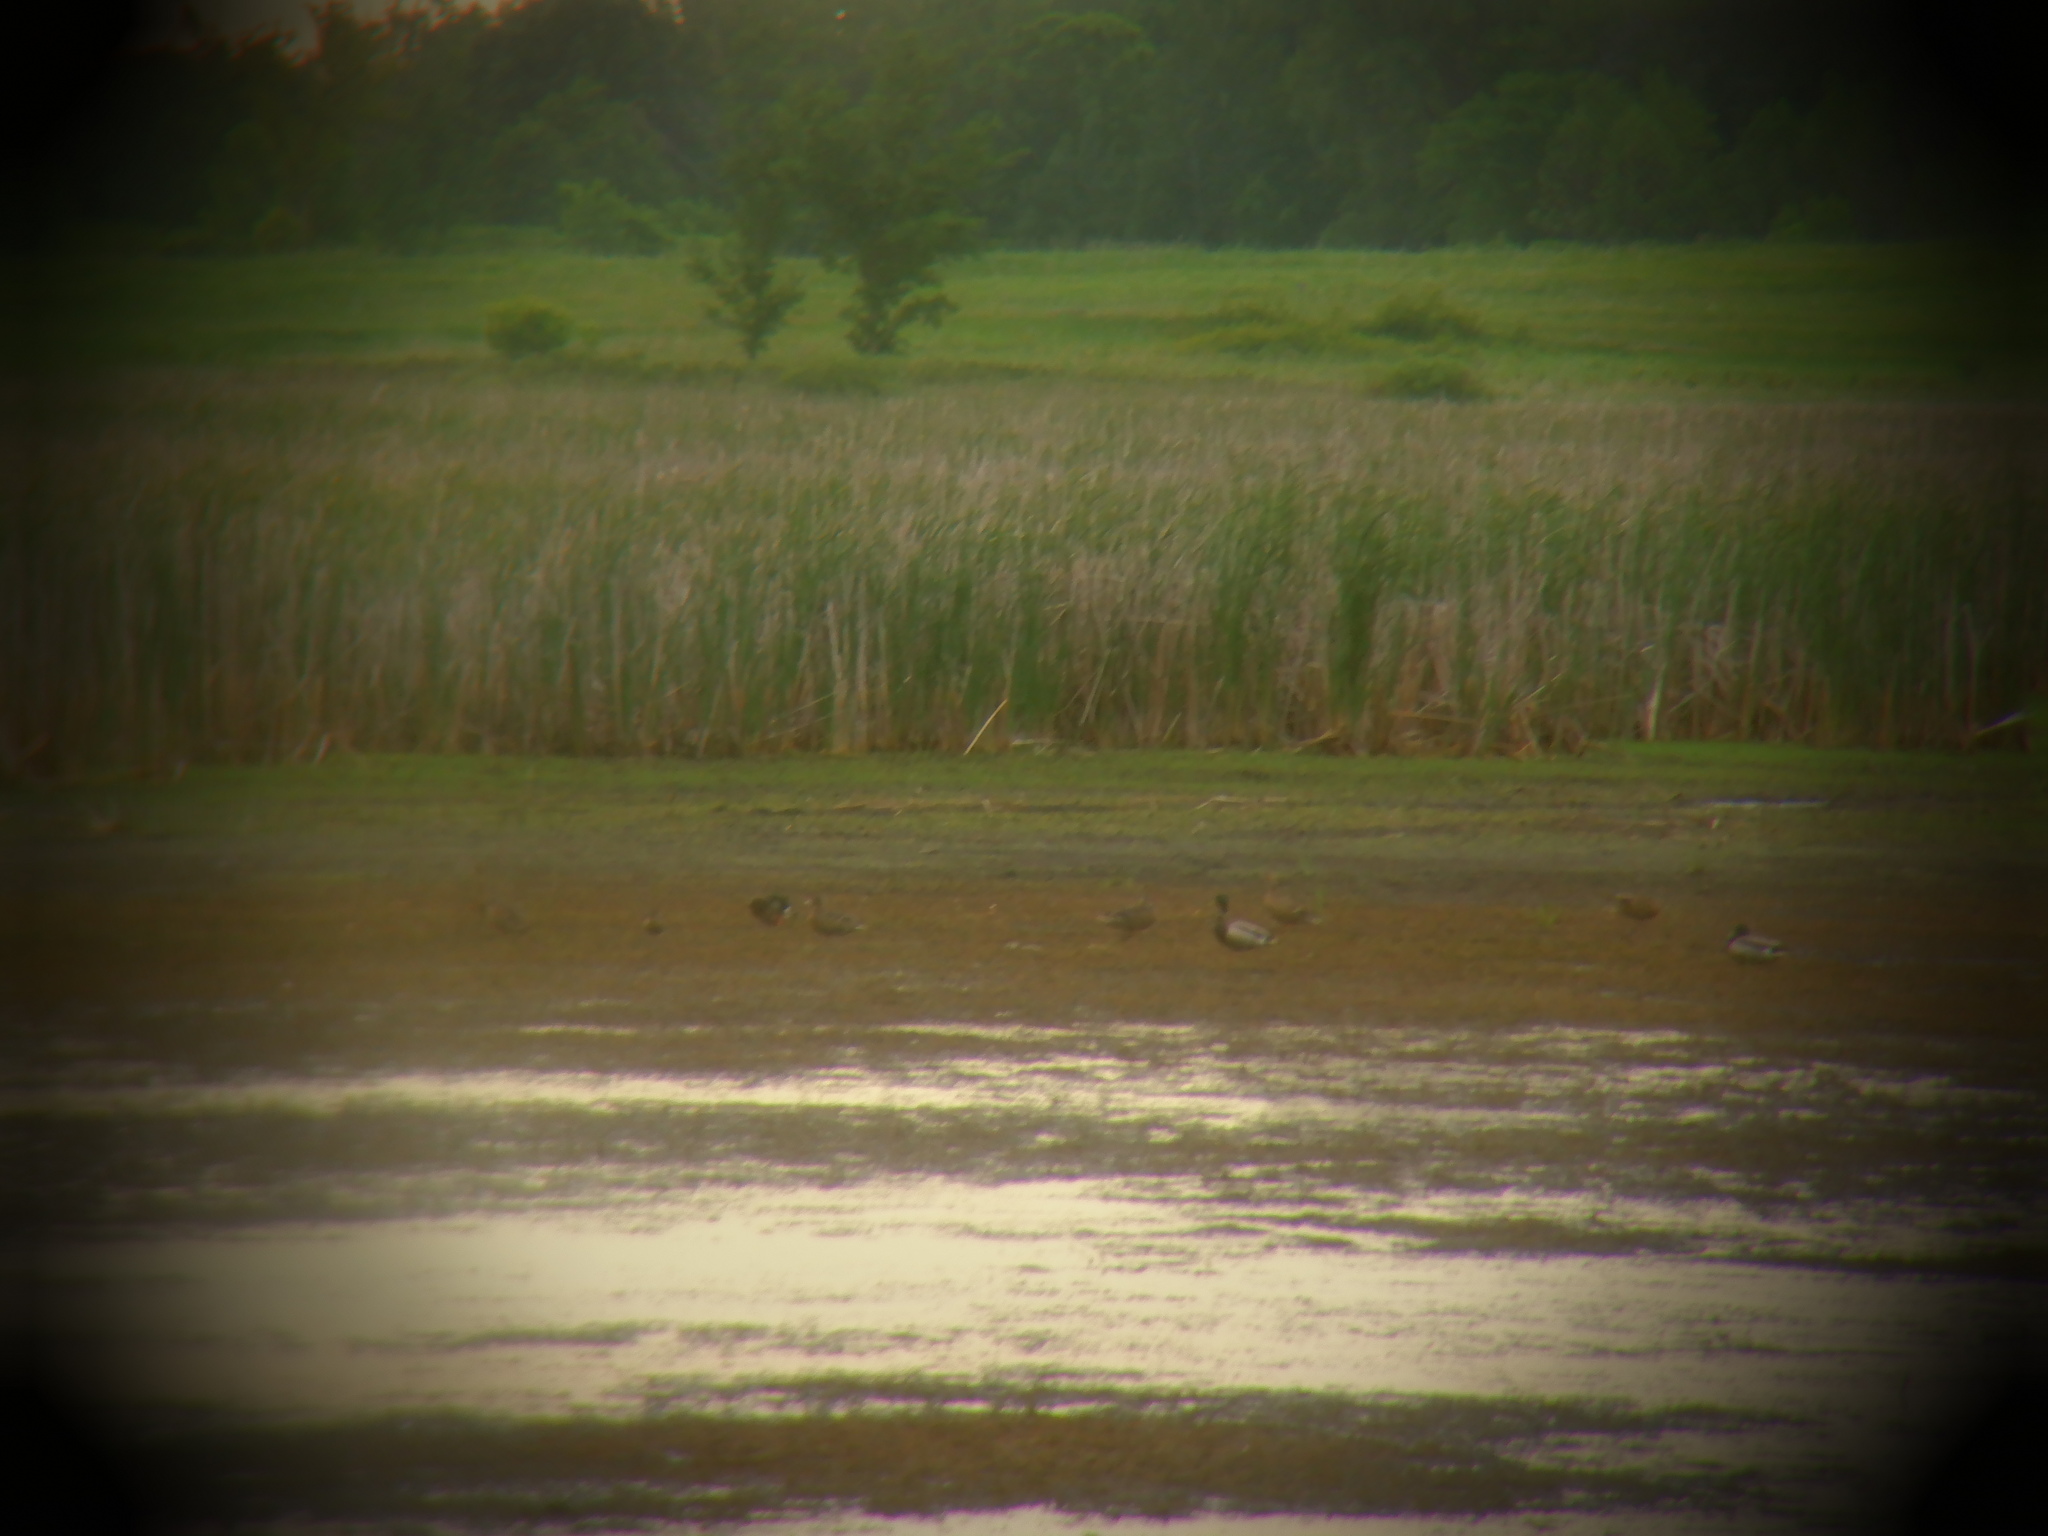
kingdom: Animalia
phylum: Chordata
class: Aves
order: Anseriformes
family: Anatidae
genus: Anas
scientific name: Anas platyrhynchos
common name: Mallard
